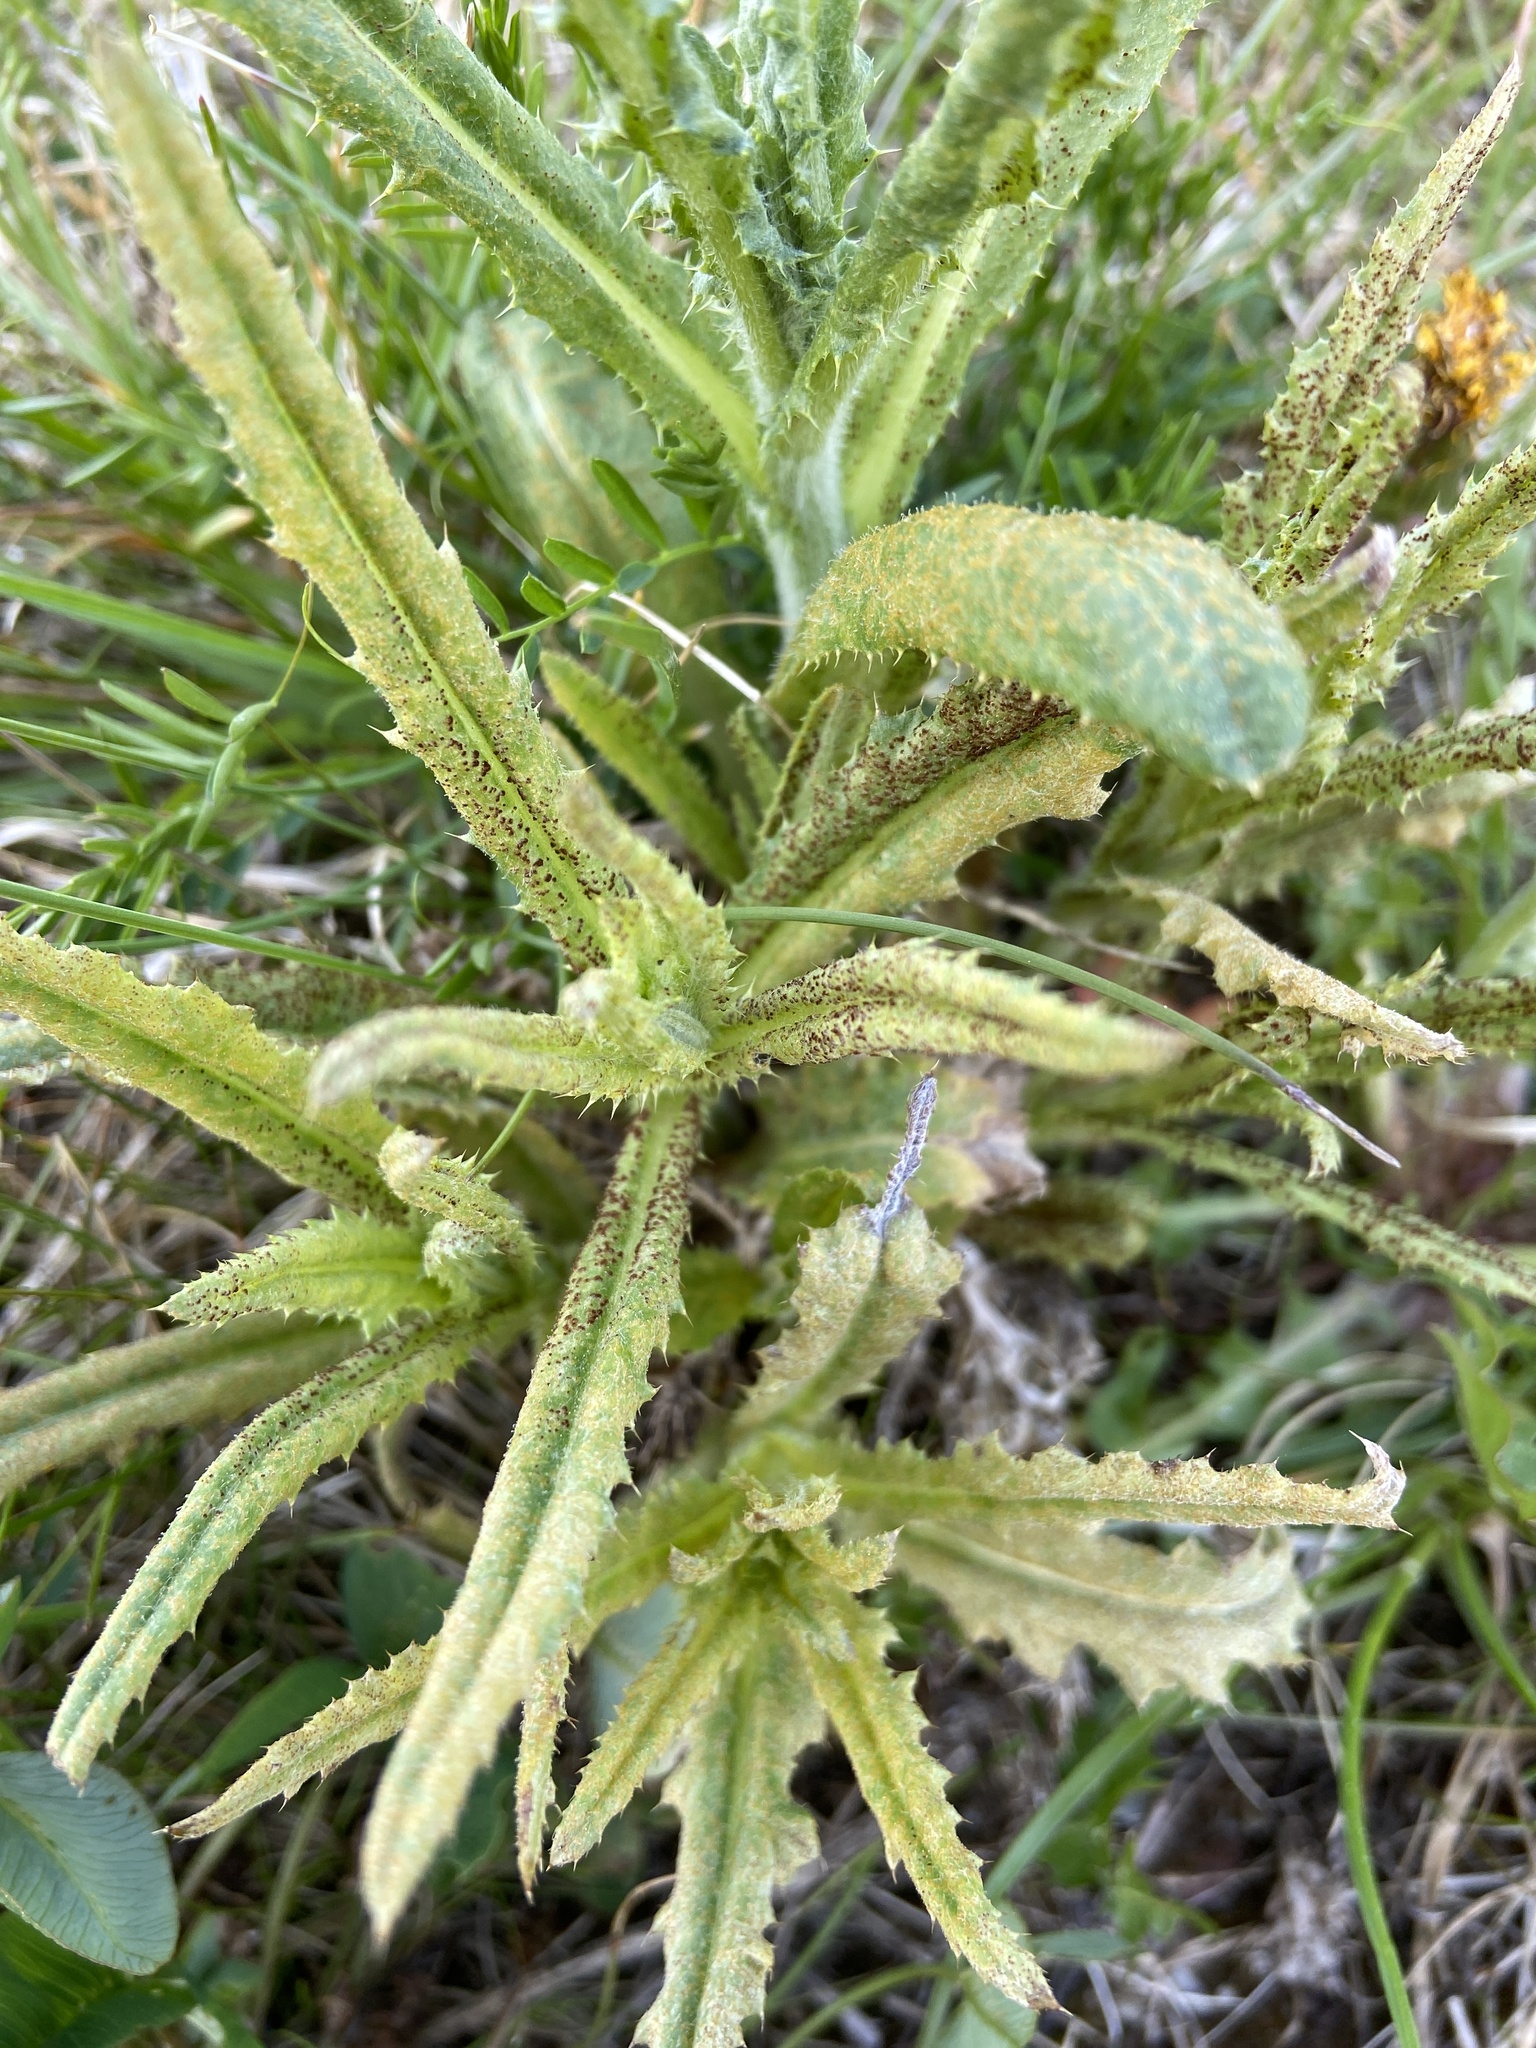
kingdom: Fungi
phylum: Basidiomycota
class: Pucciniomycetes
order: Pucciniales
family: Pucciniaceae
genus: Puccinia
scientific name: Puccinia suaveolens
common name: Thistle rust
